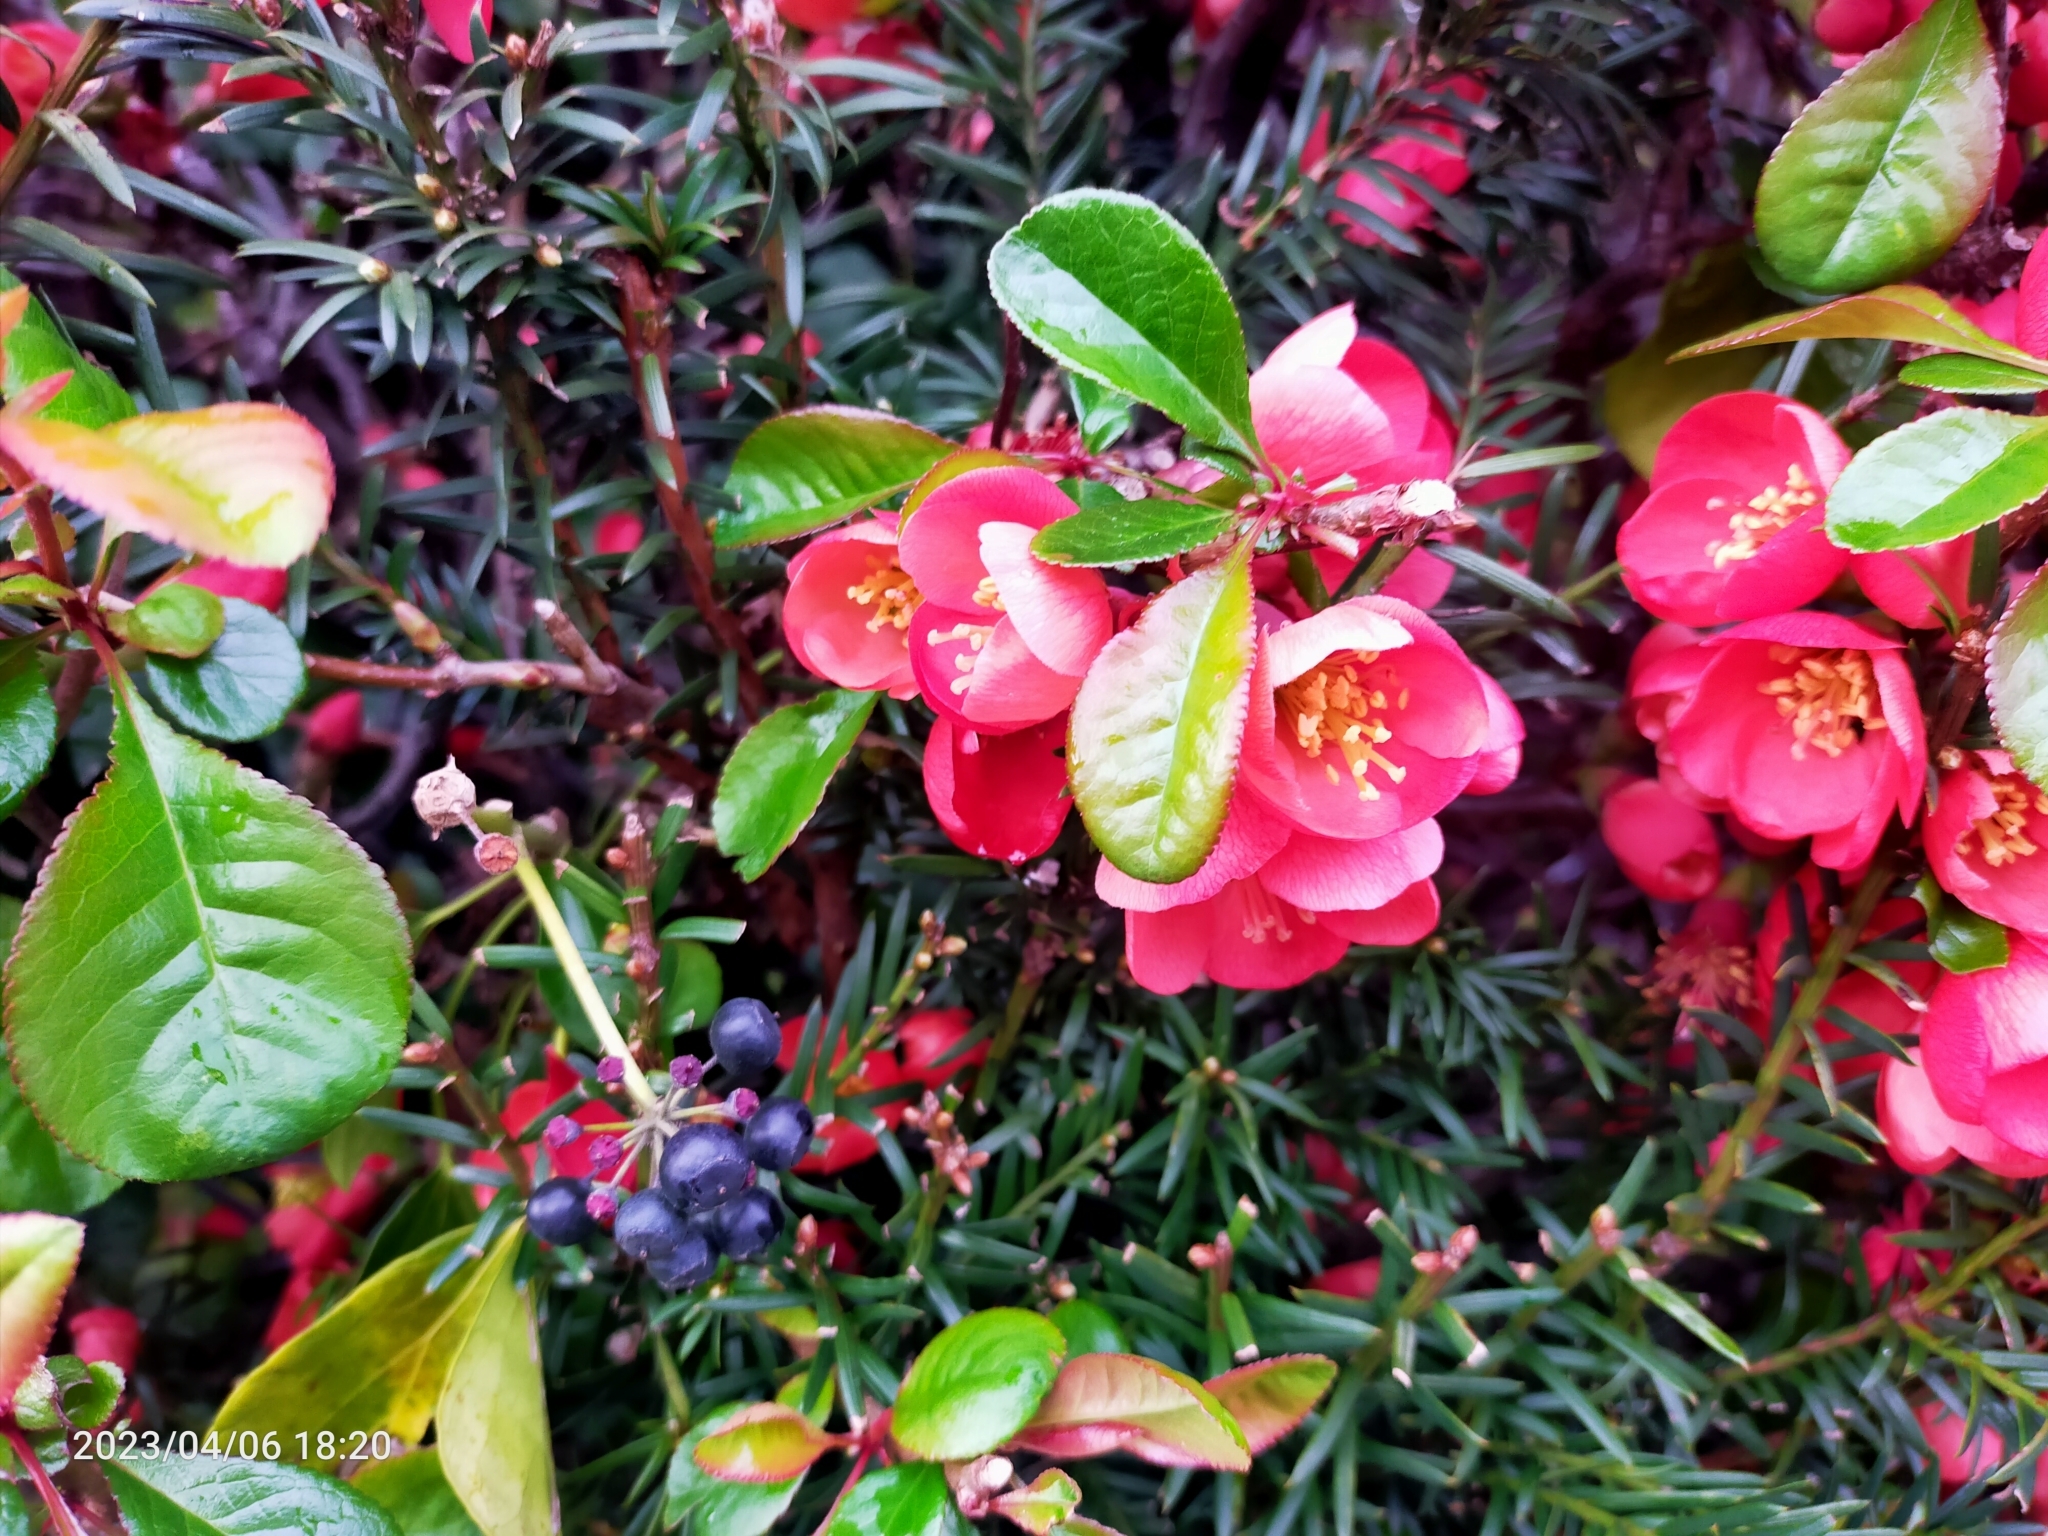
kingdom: Plantae
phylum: Tracheophyta
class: Magnoliopsida
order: Rosales
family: Rosaceae
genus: Chaenomeles
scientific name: Chaenomeles speciosa
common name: Japanese quince
